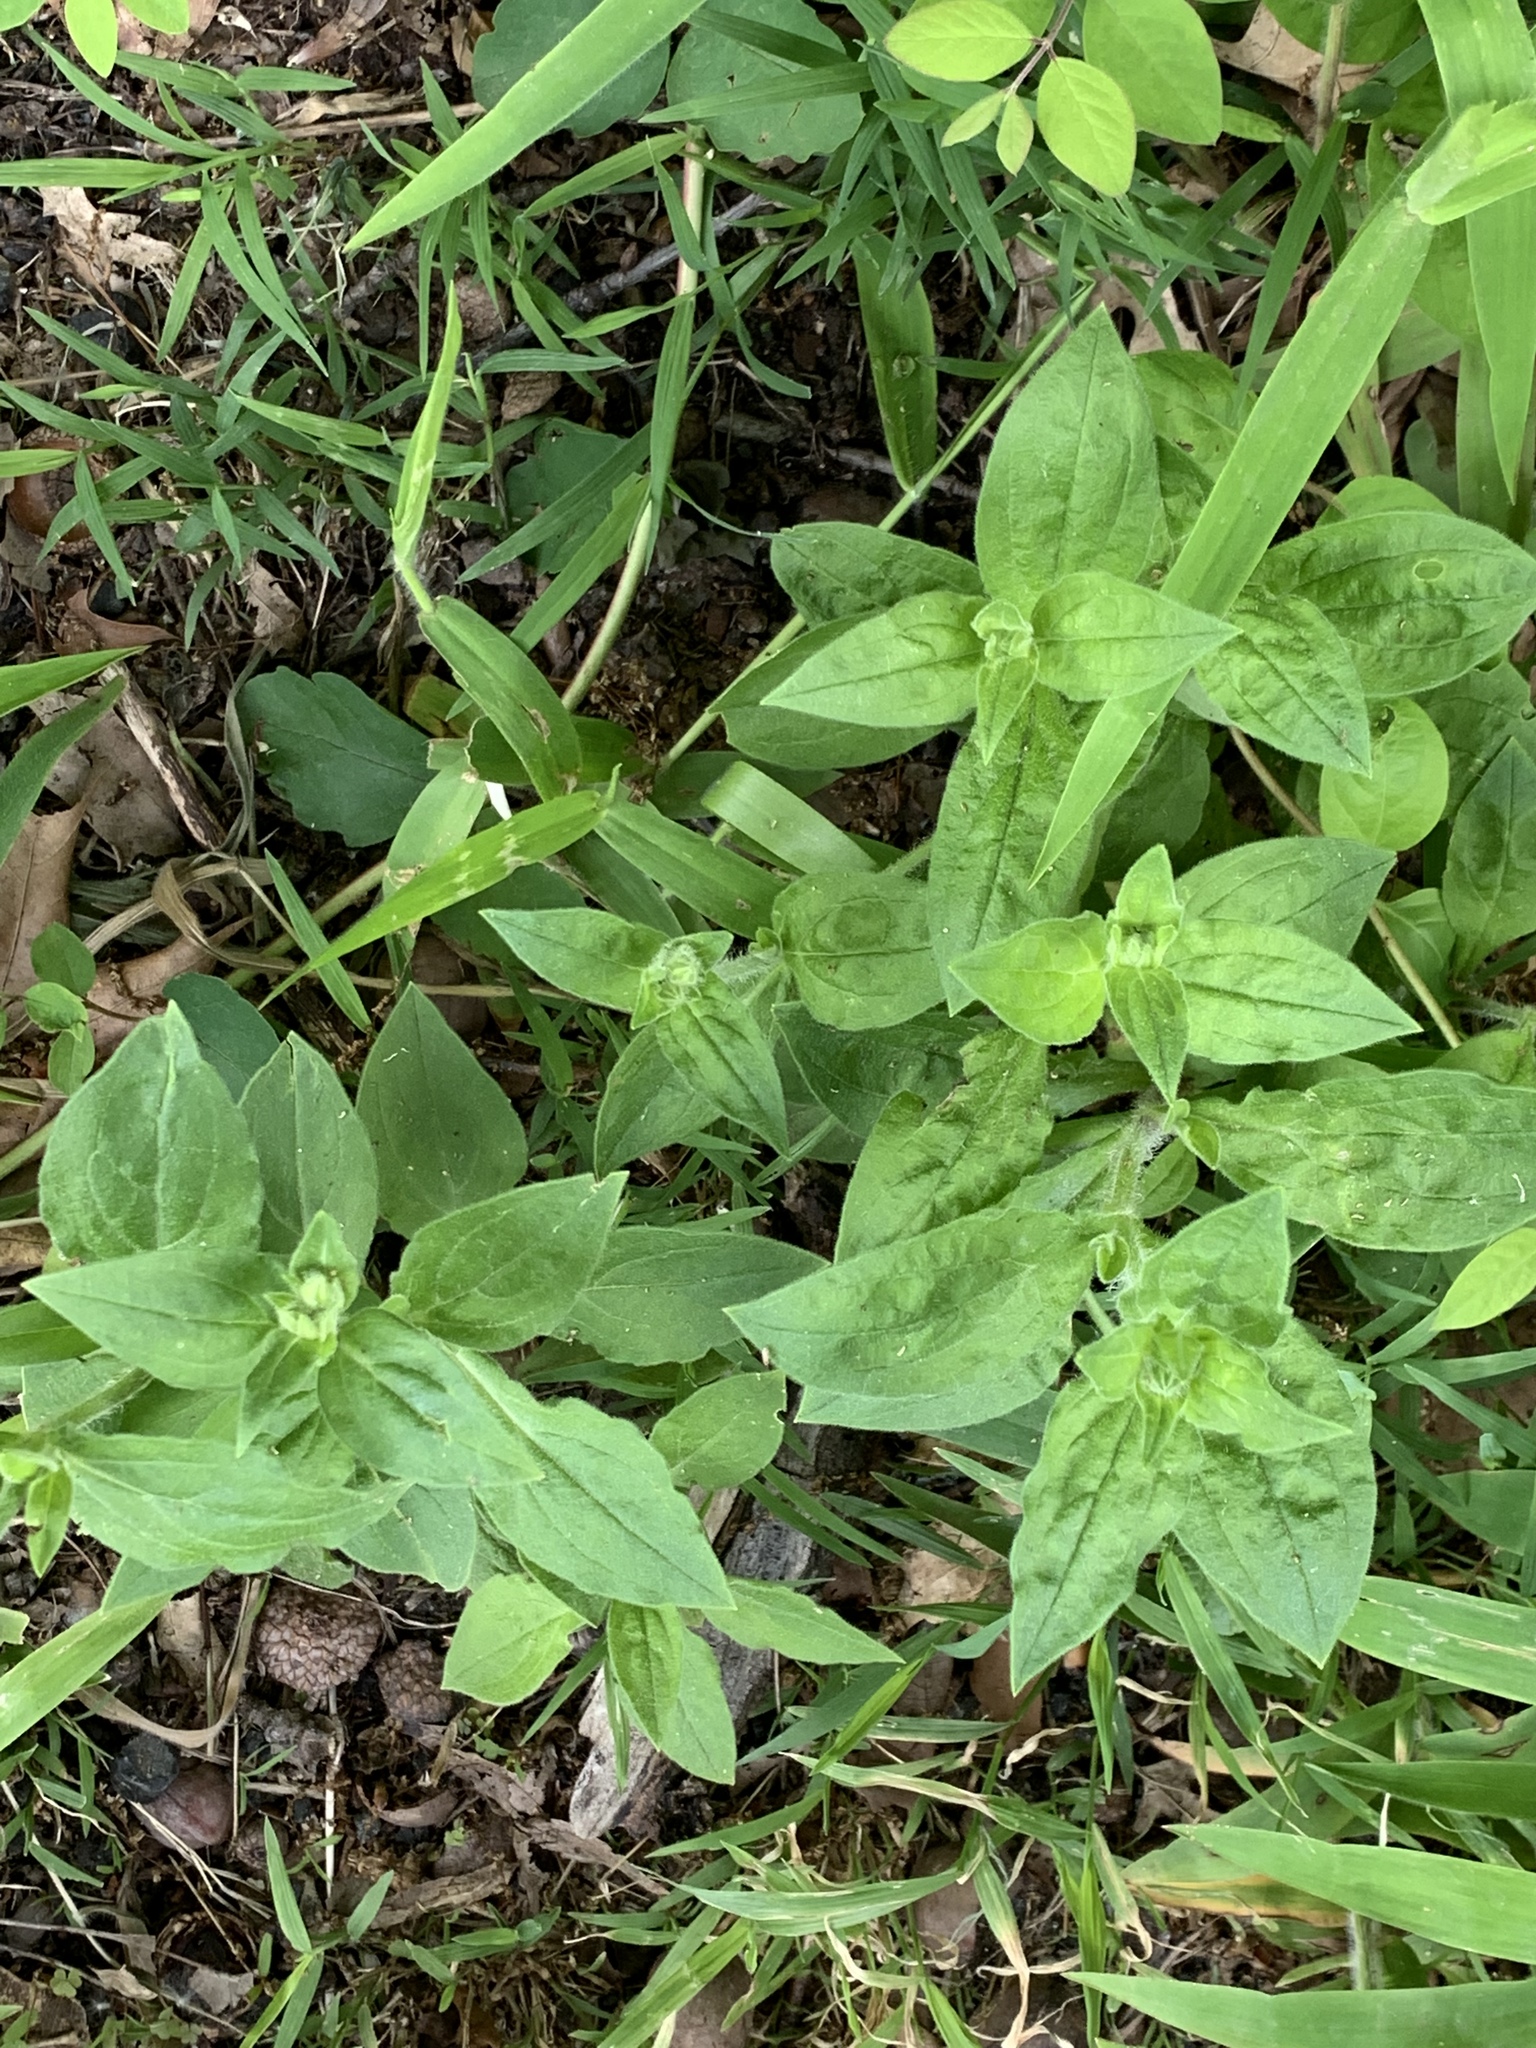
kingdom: Plantae
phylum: Tracheophyta
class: Magnoliopsida
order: Caryophyllales
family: Caryophyllaceae
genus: Silene
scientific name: Silene latifolia
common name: White campion
